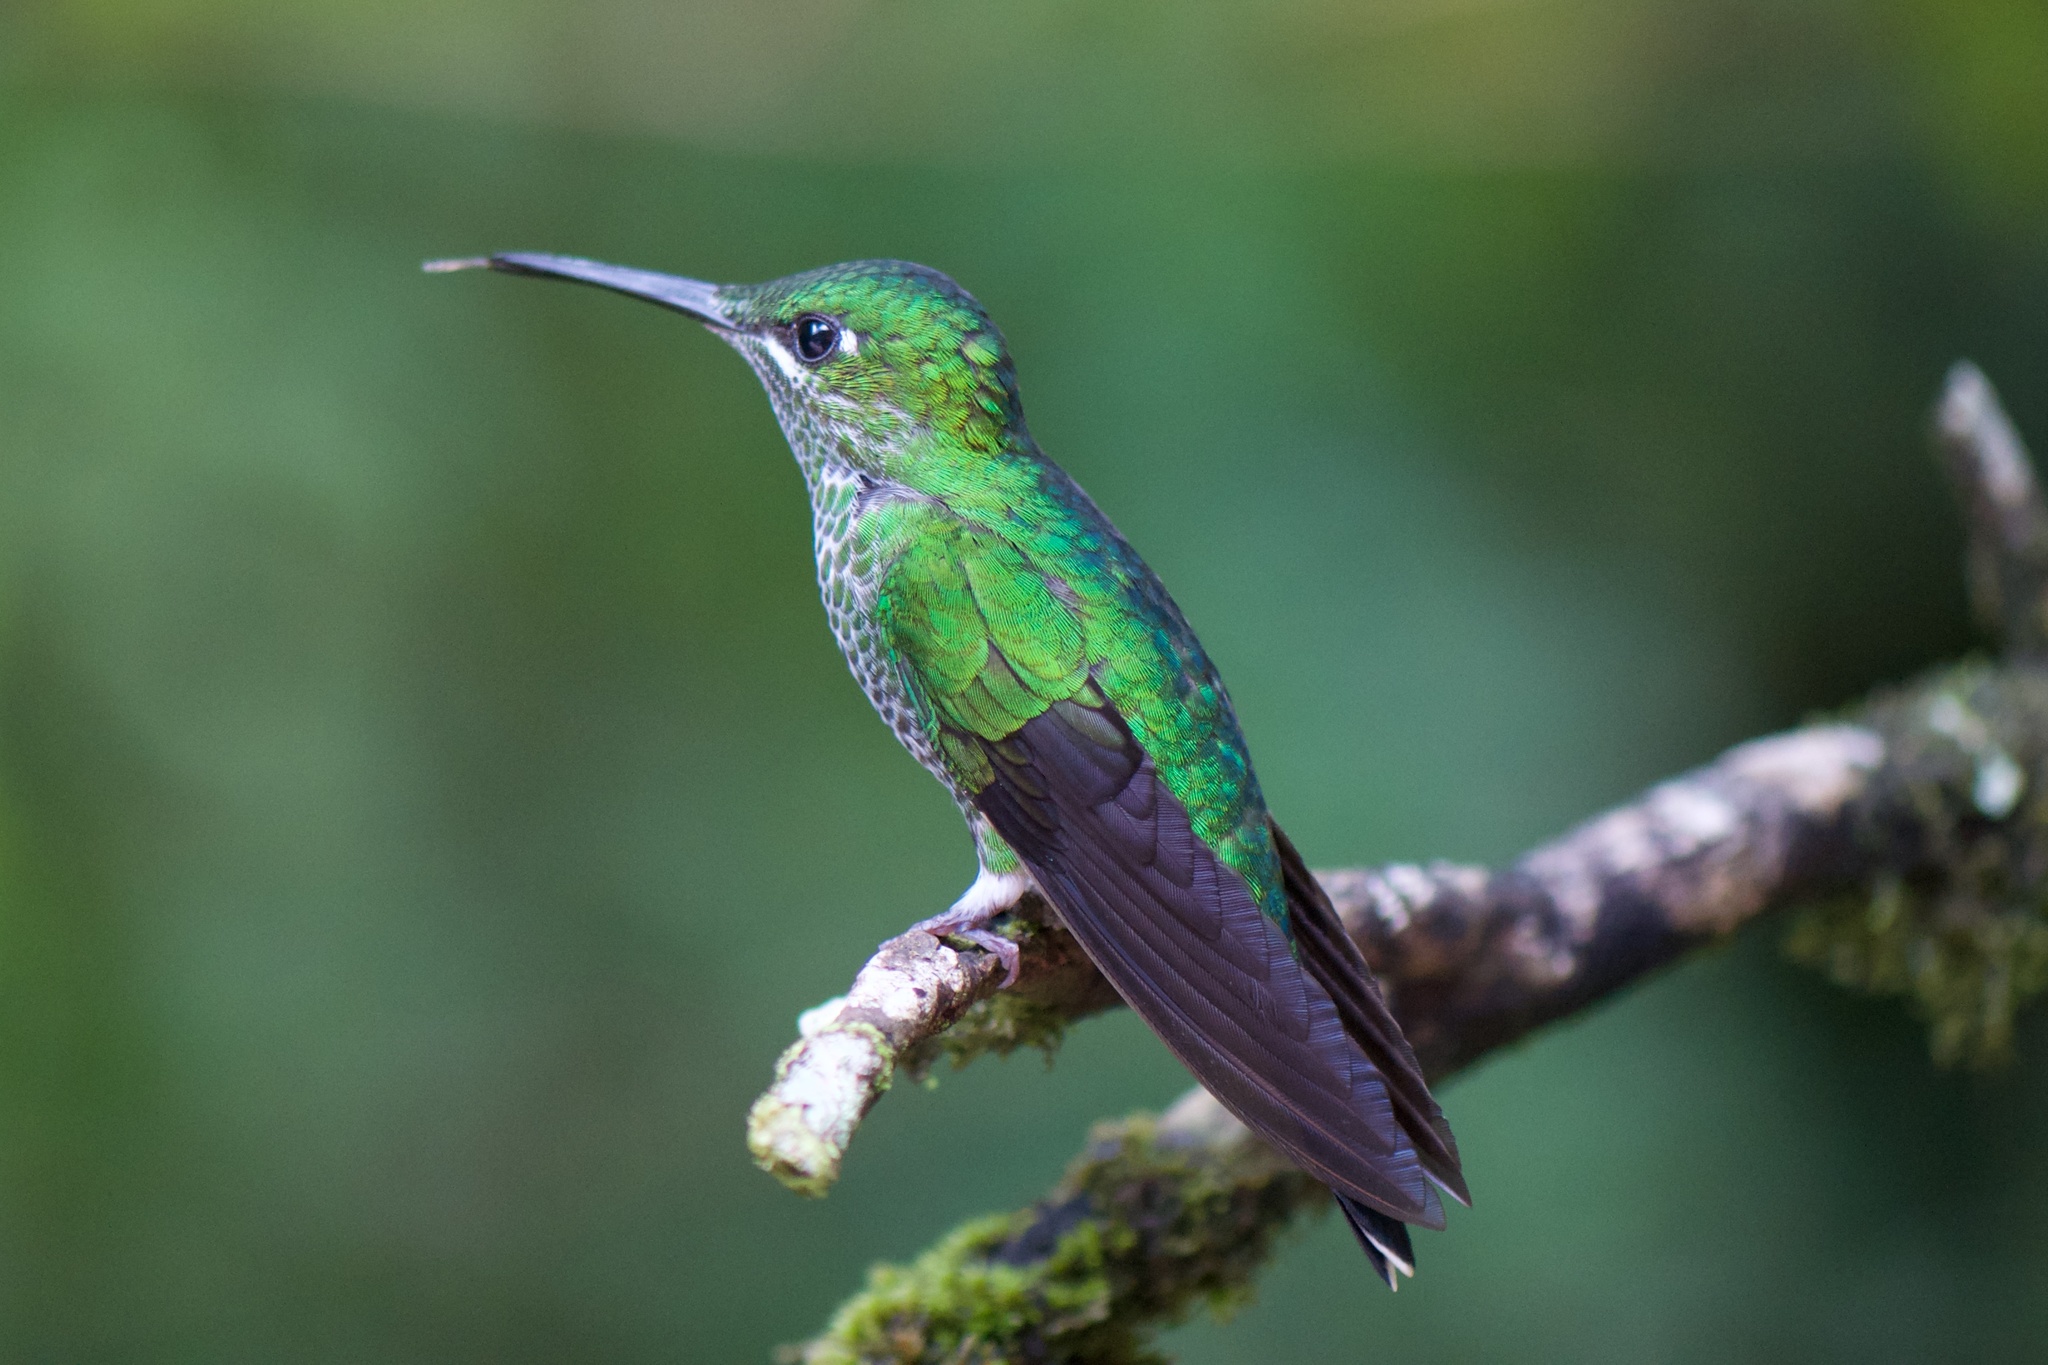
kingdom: Animalia
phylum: Chordata
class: Aves
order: Apodiformes
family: Trochilidae
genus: Heliodoxa
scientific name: Heliodoxa jacula
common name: Green-crowned brilliant
